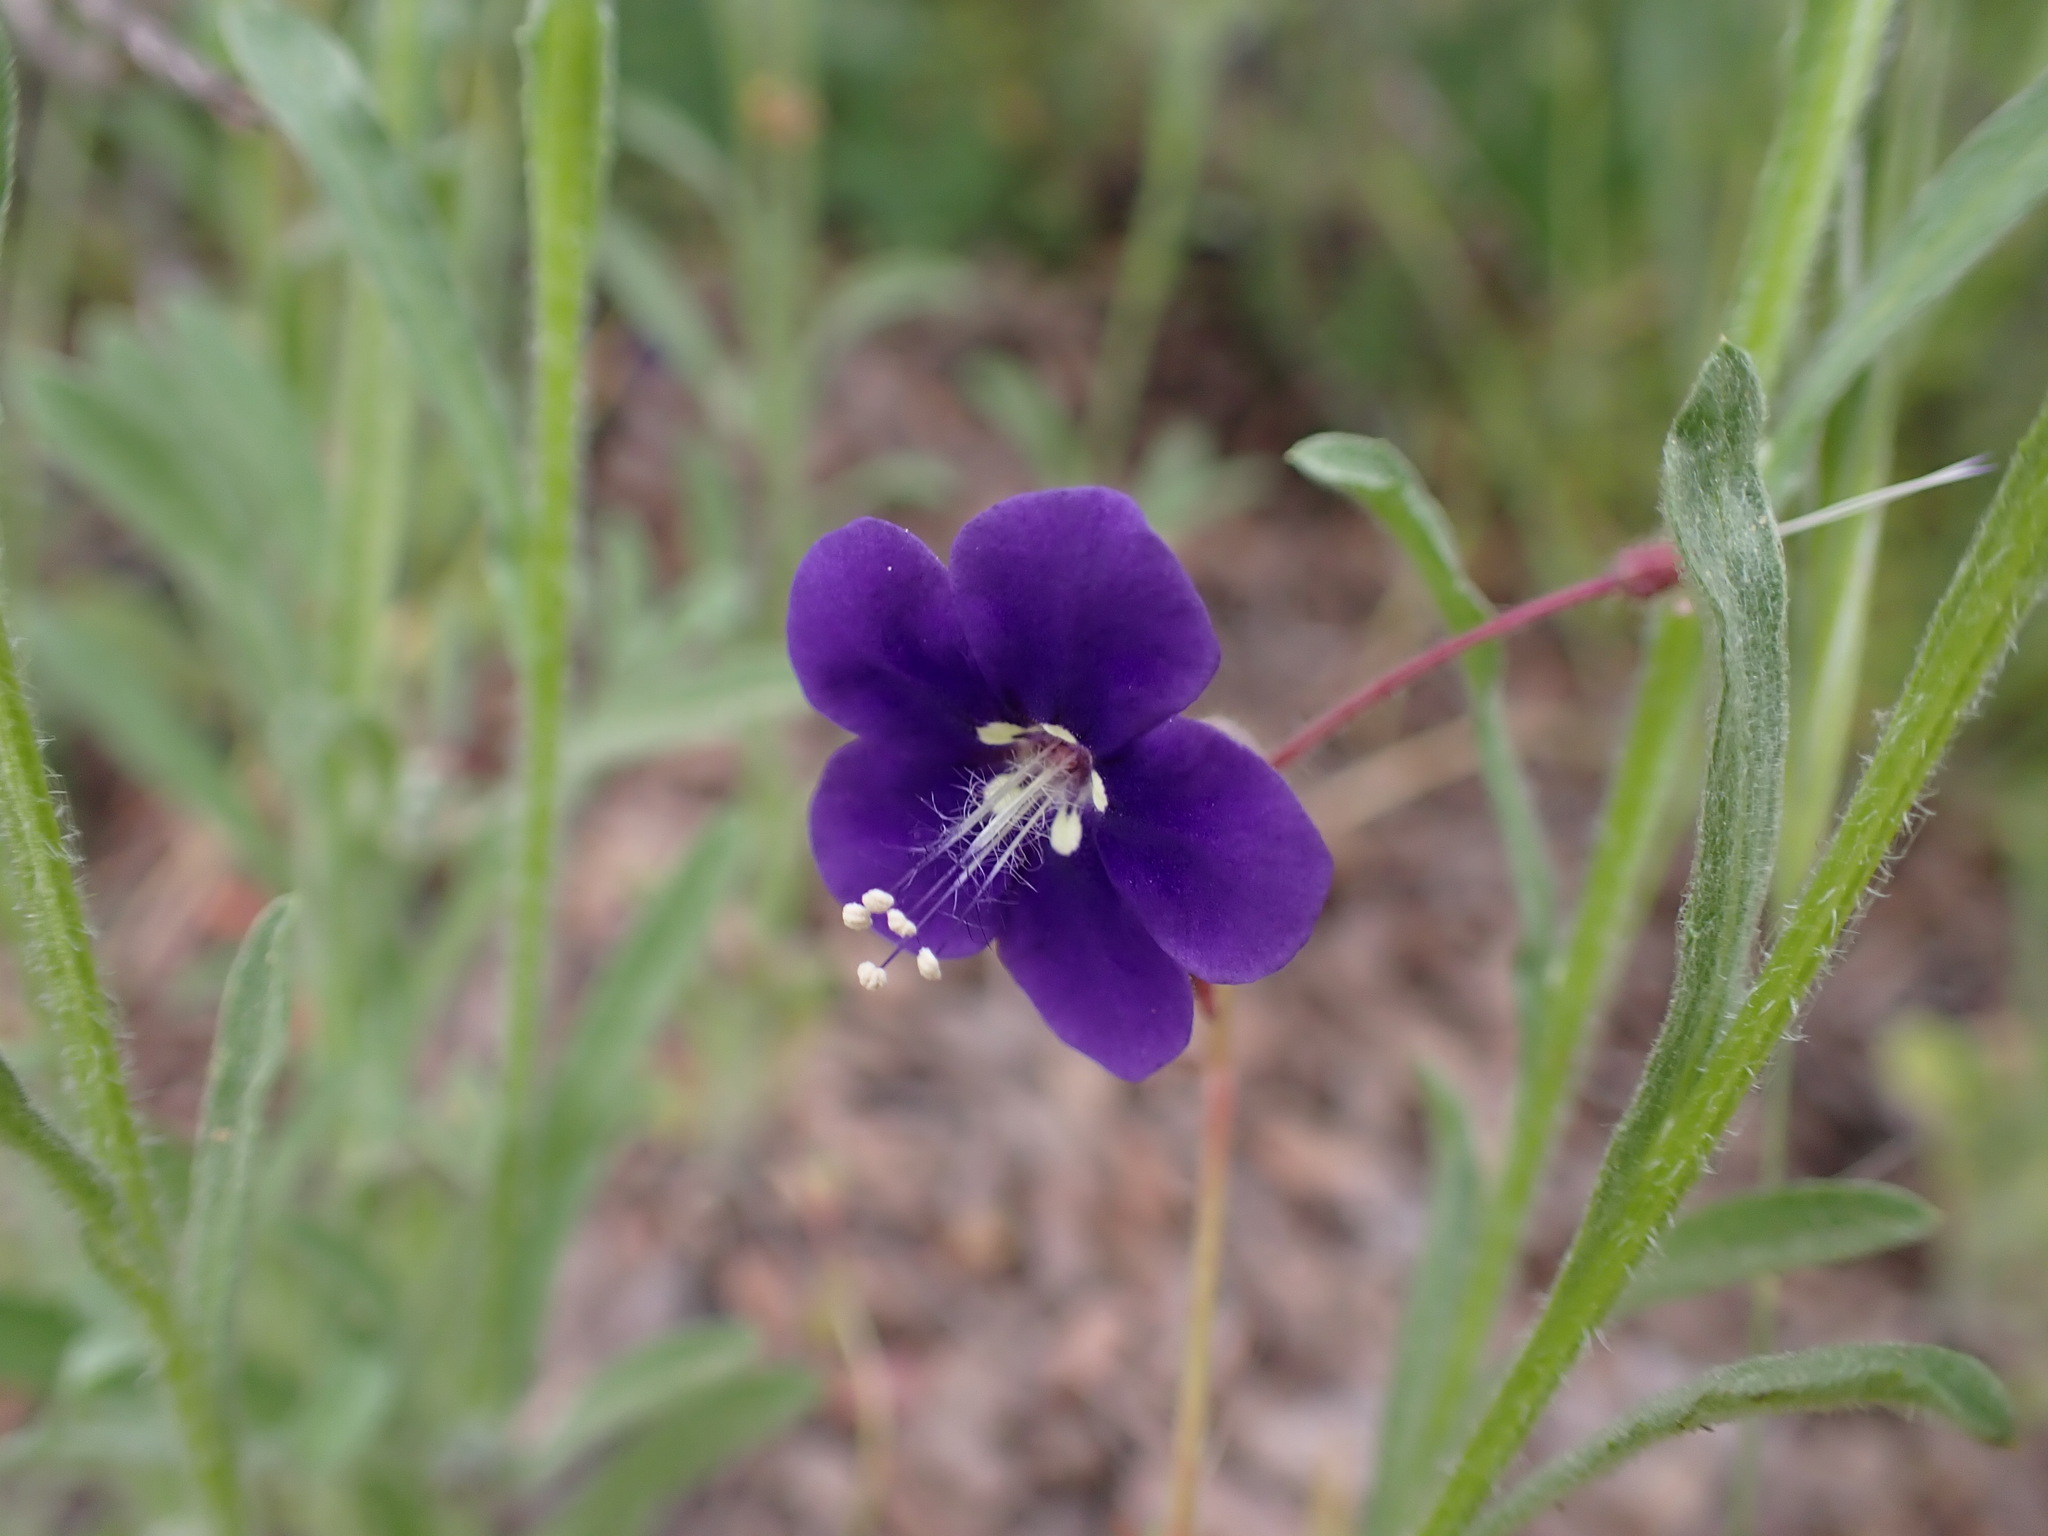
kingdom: Plantae
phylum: Tracheophyta
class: Magnoliopsida
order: Boraginales
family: Hydrophyllaceae
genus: Phacelia
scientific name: Phacelia parryi
